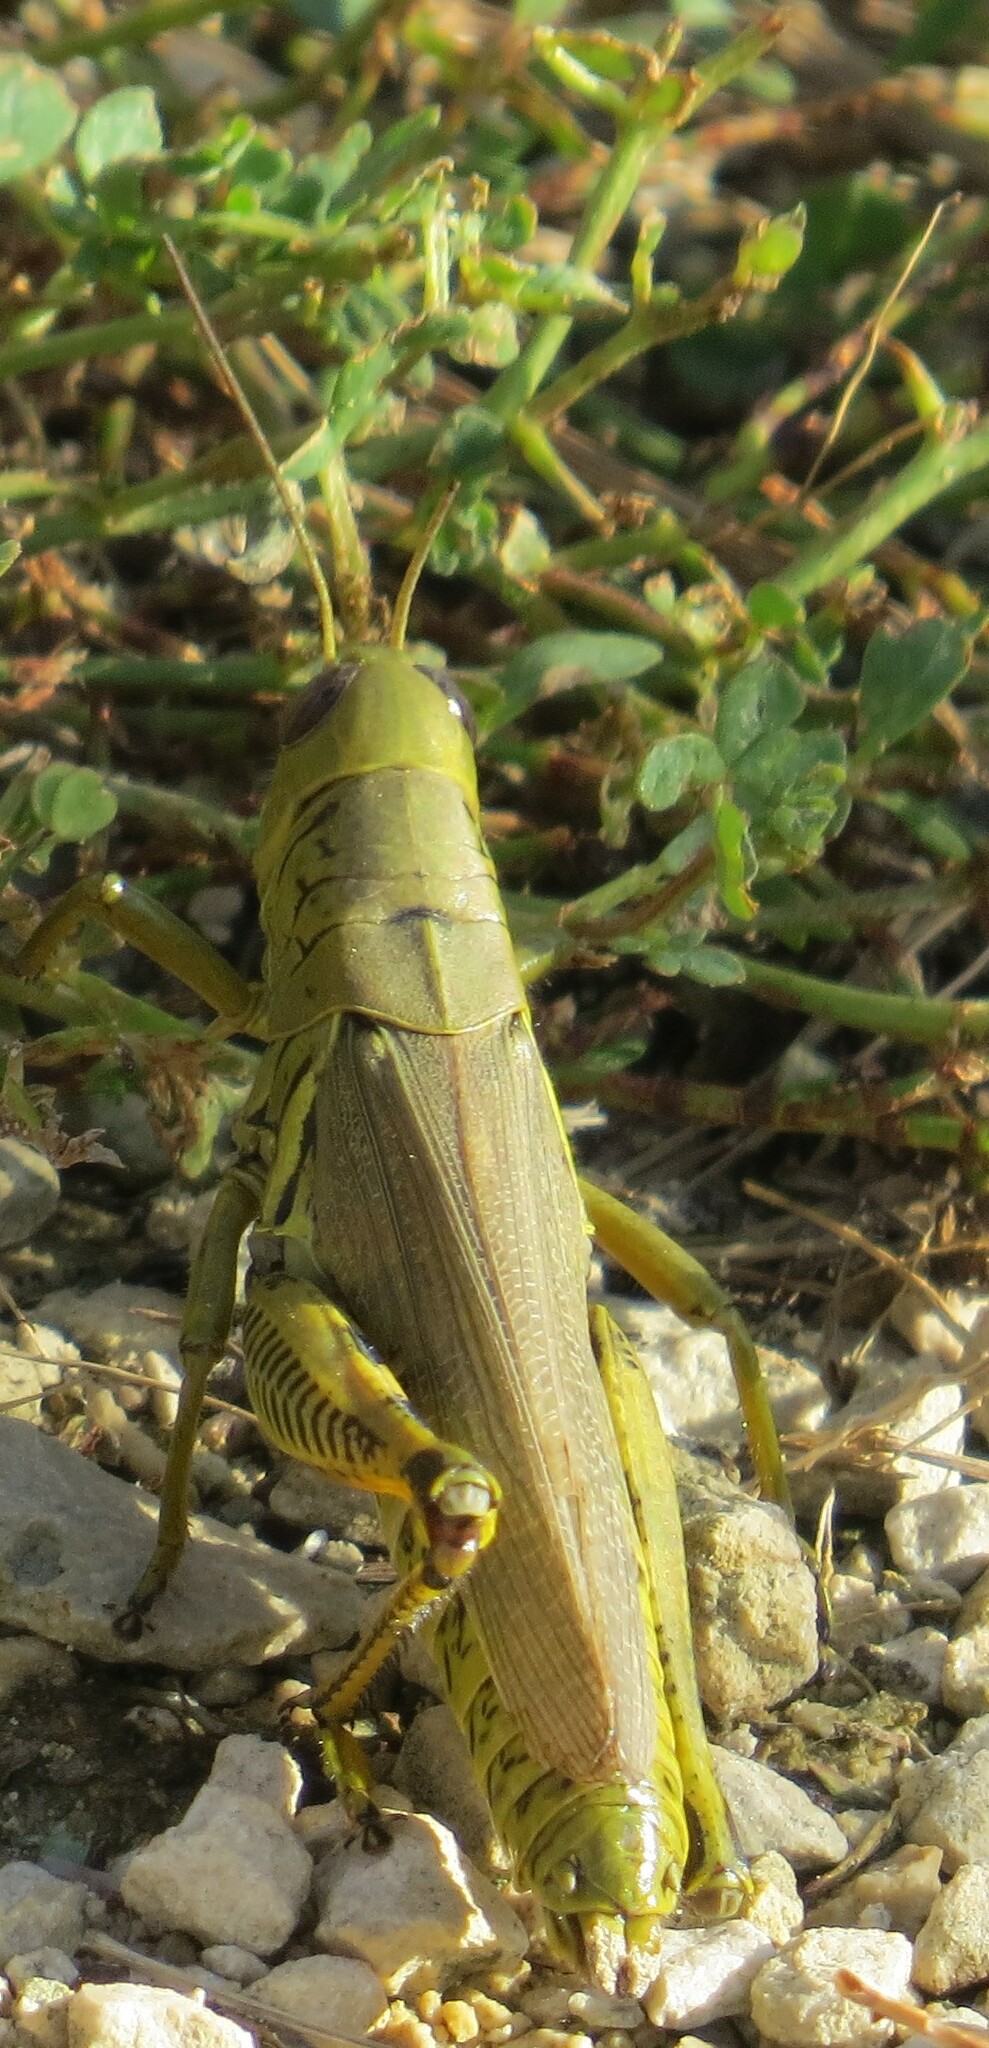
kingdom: Animalia
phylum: Arthropoda
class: Insecta
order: Orthoptera
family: Acrididae
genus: Melanoplus
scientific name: Melanoplus differentialis
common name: Differential grasshopper
